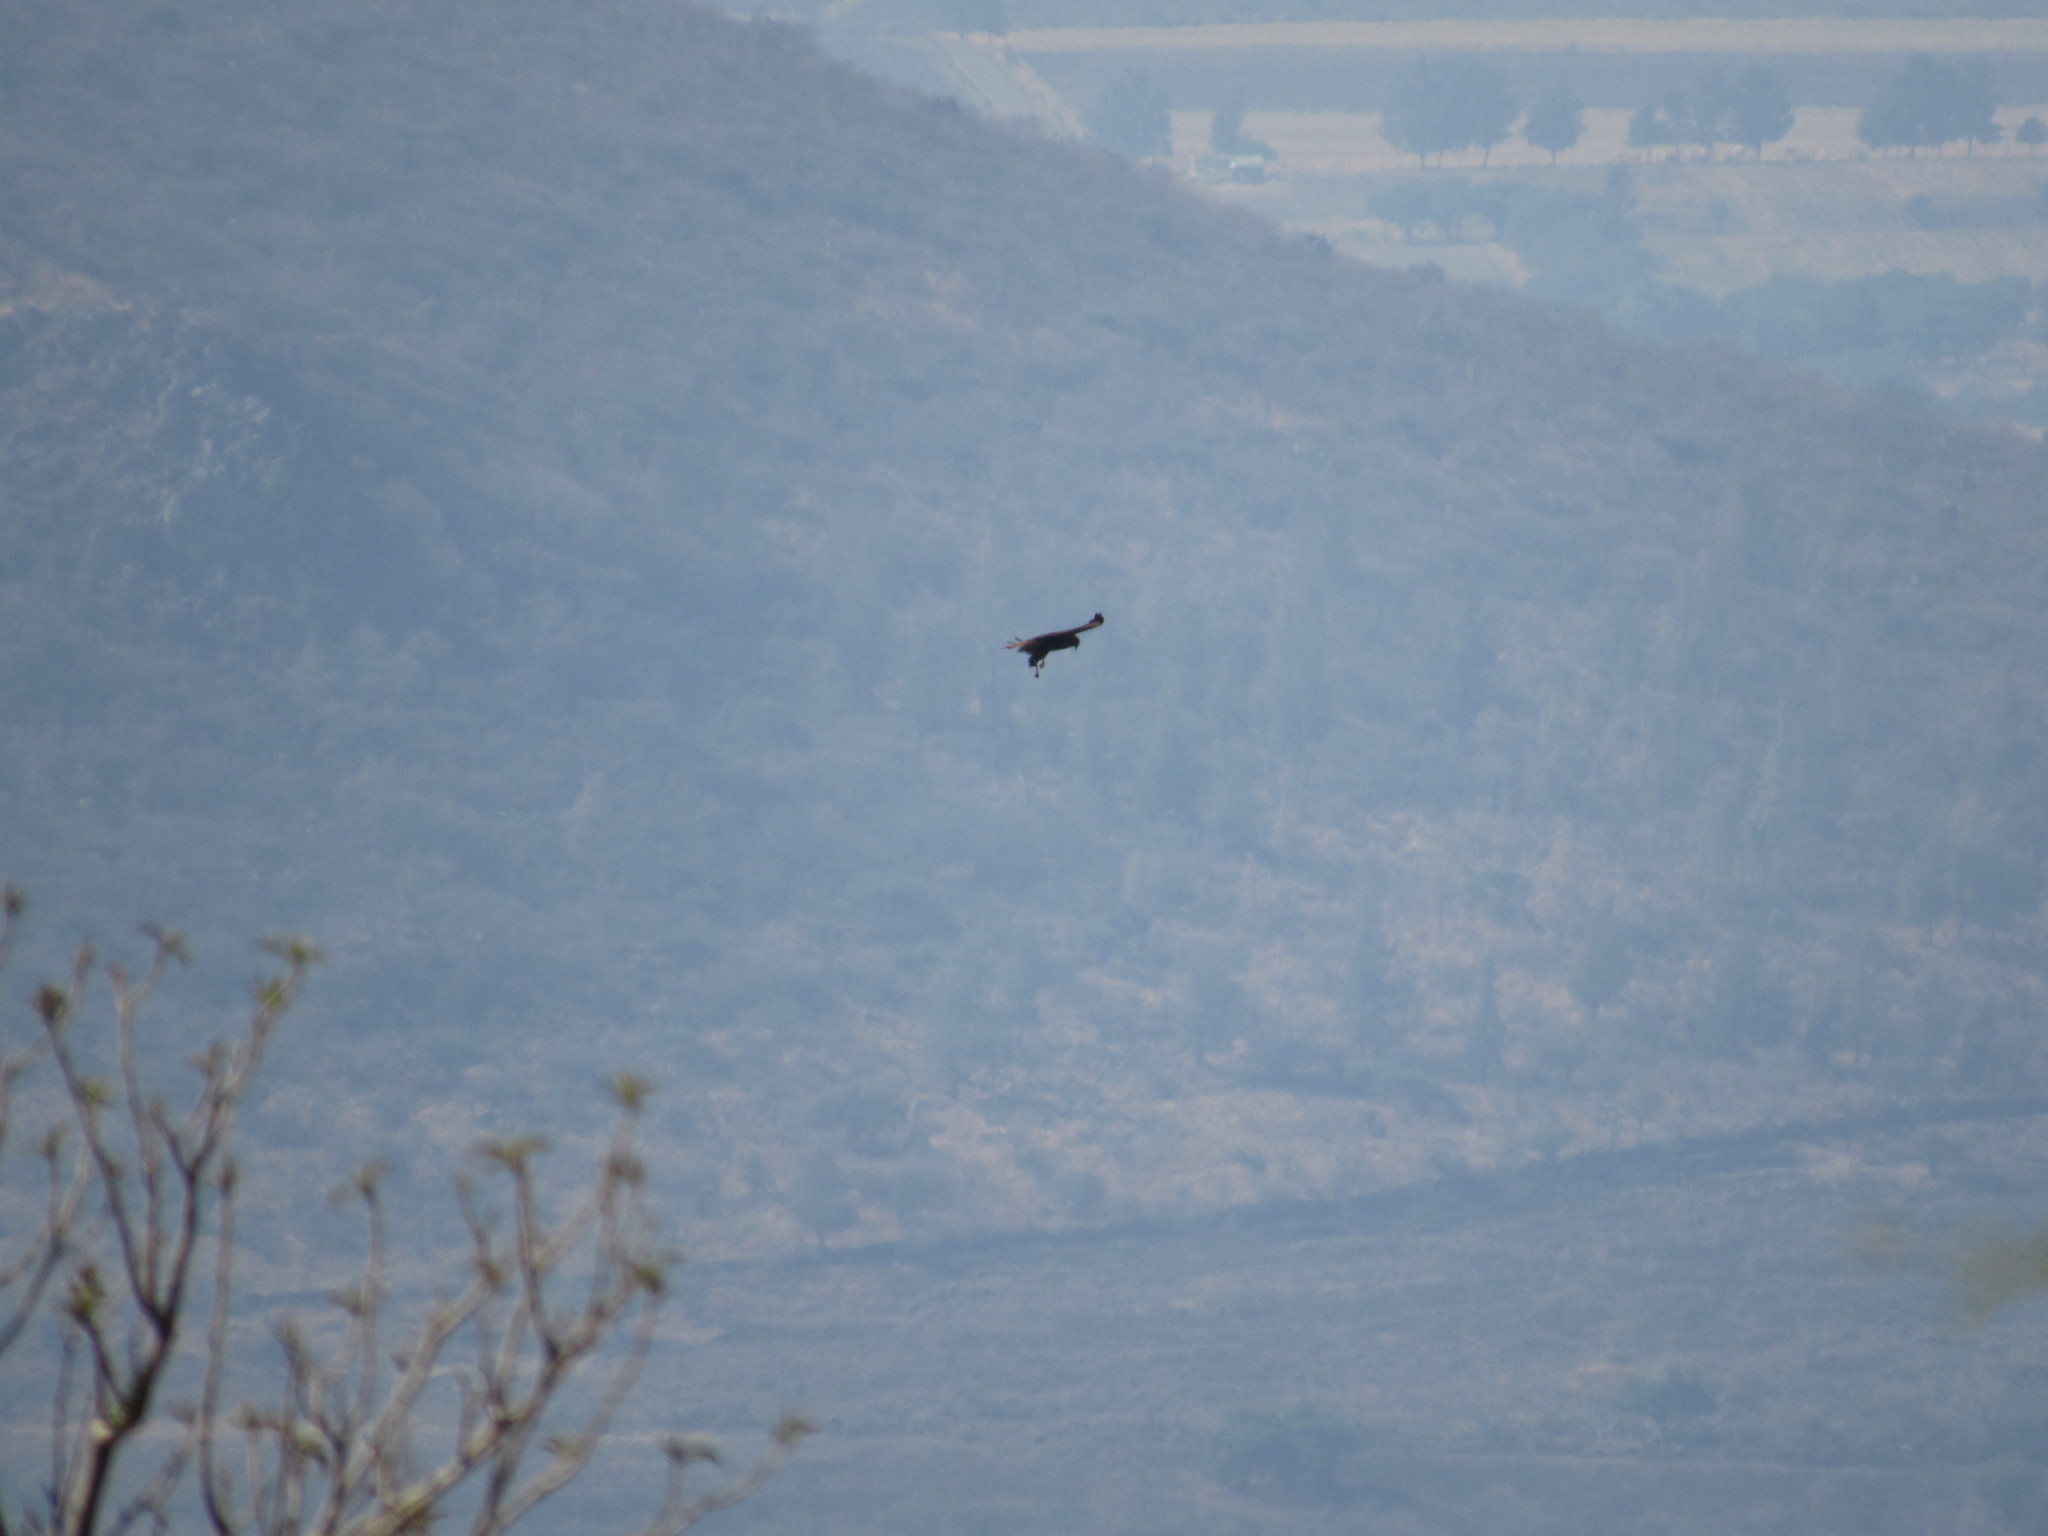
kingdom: Animalia
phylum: Chordata
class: Aves
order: Accipitriformes
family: Accipitridae
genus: Buteo
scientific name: Buteo jamaicensis
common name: Red-tailed hawk
